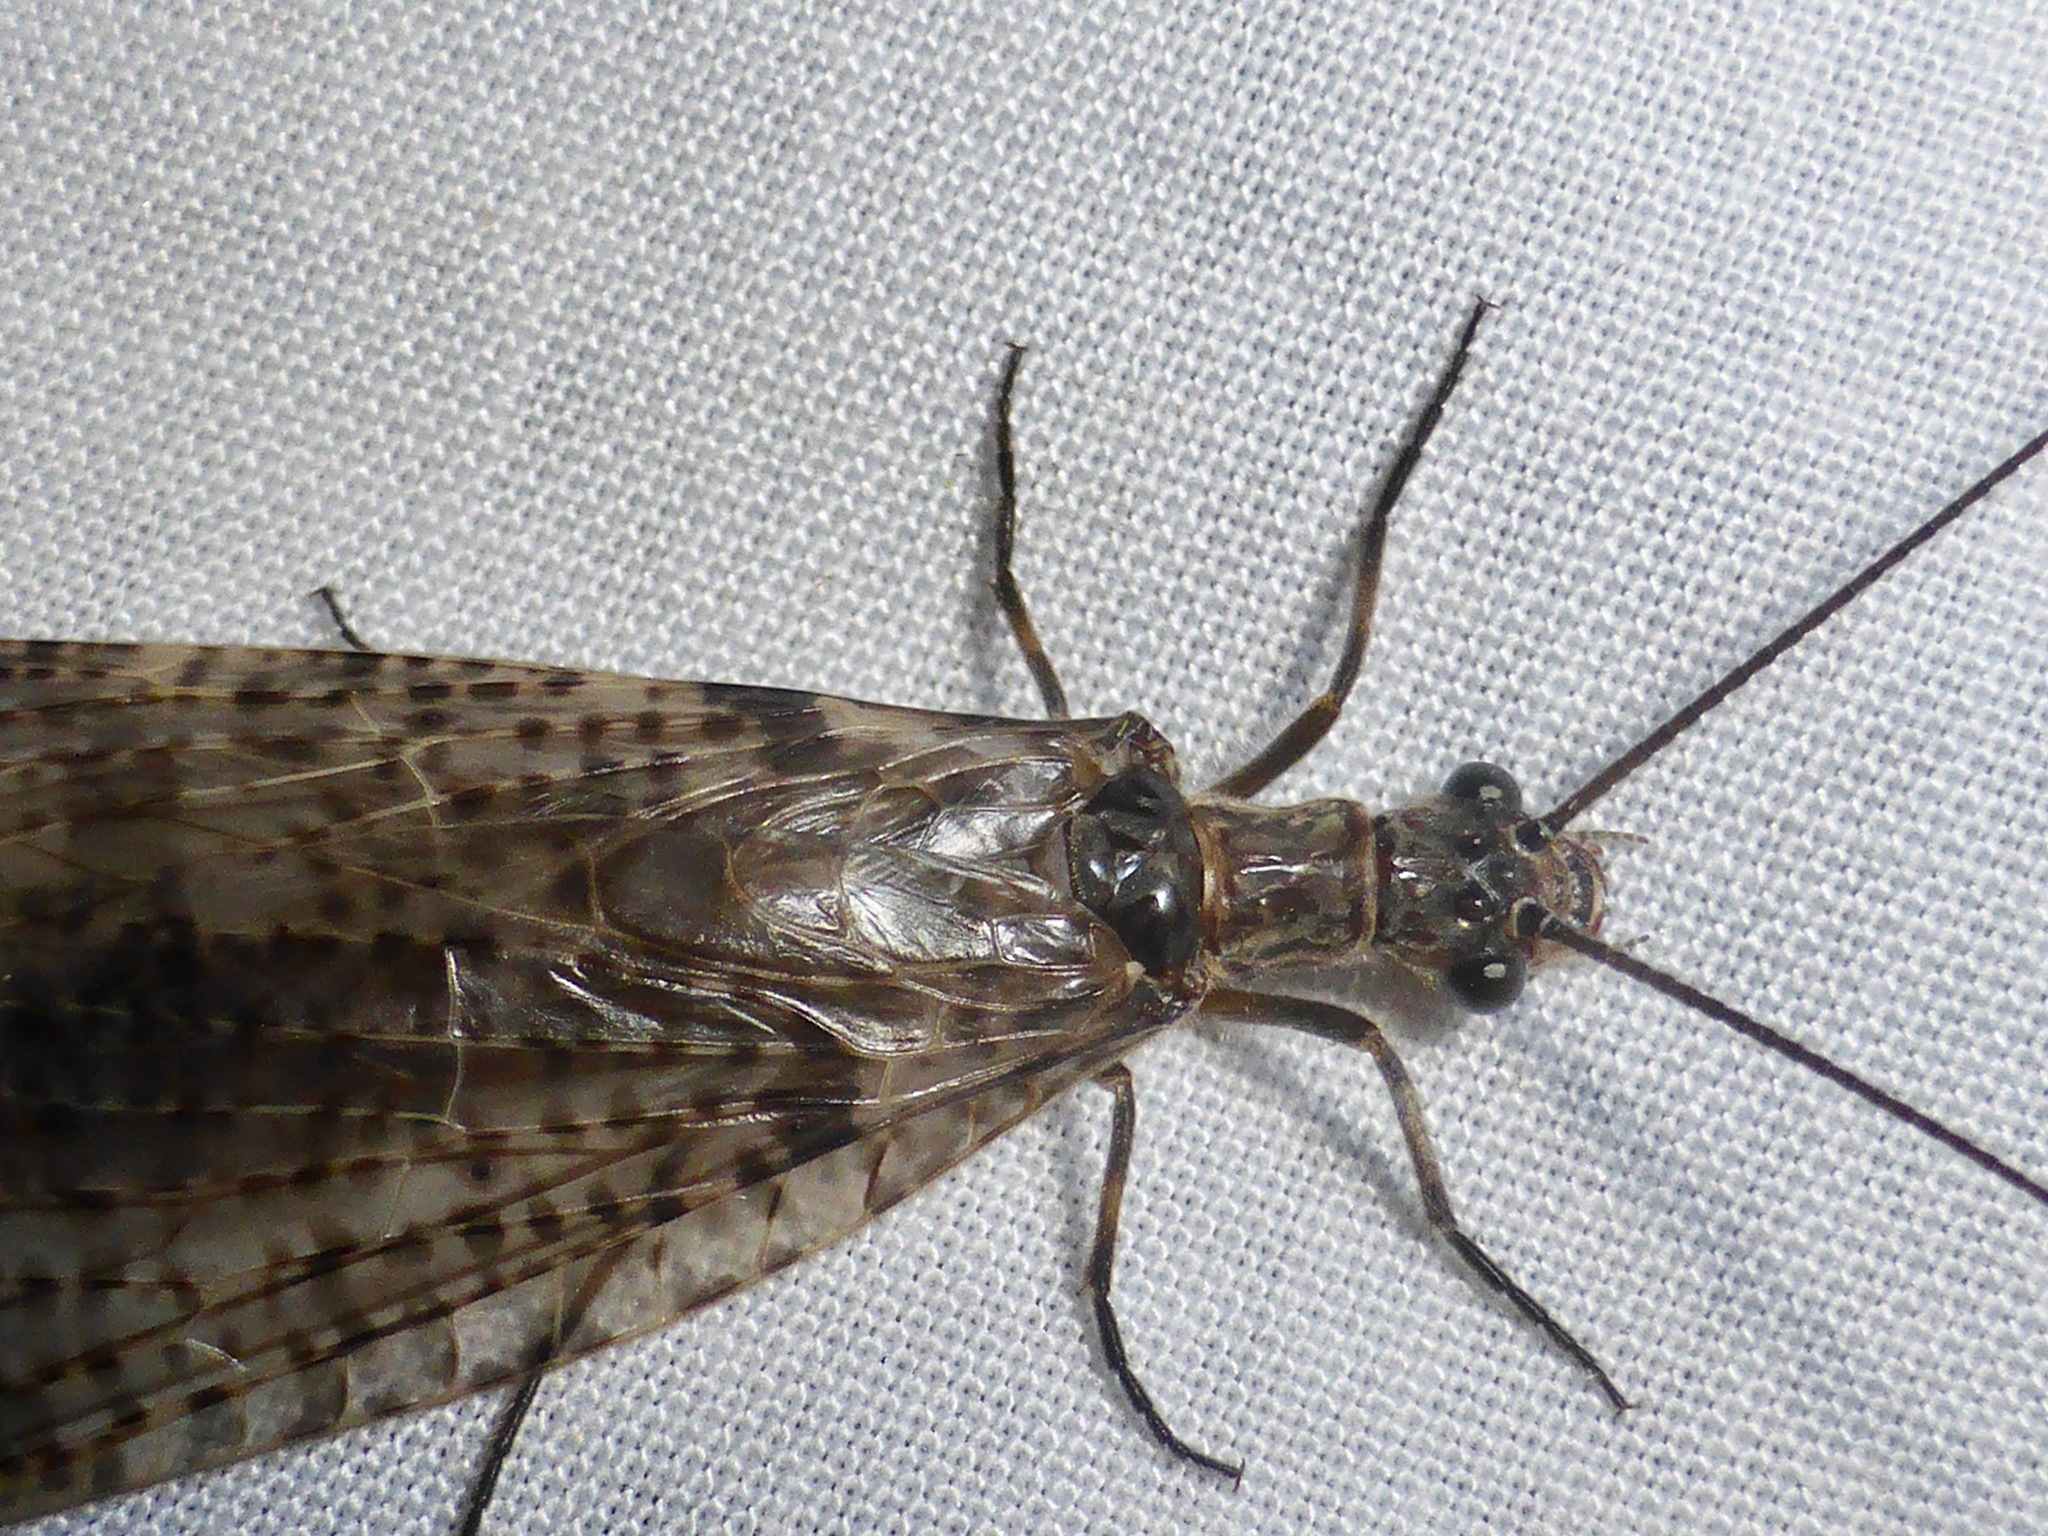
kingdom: Animalia
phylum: Arthropoda
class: Insecta
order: Megaloptera
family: Corydalidae
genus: Archichauliodes
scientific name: Archichauliodes diversus
